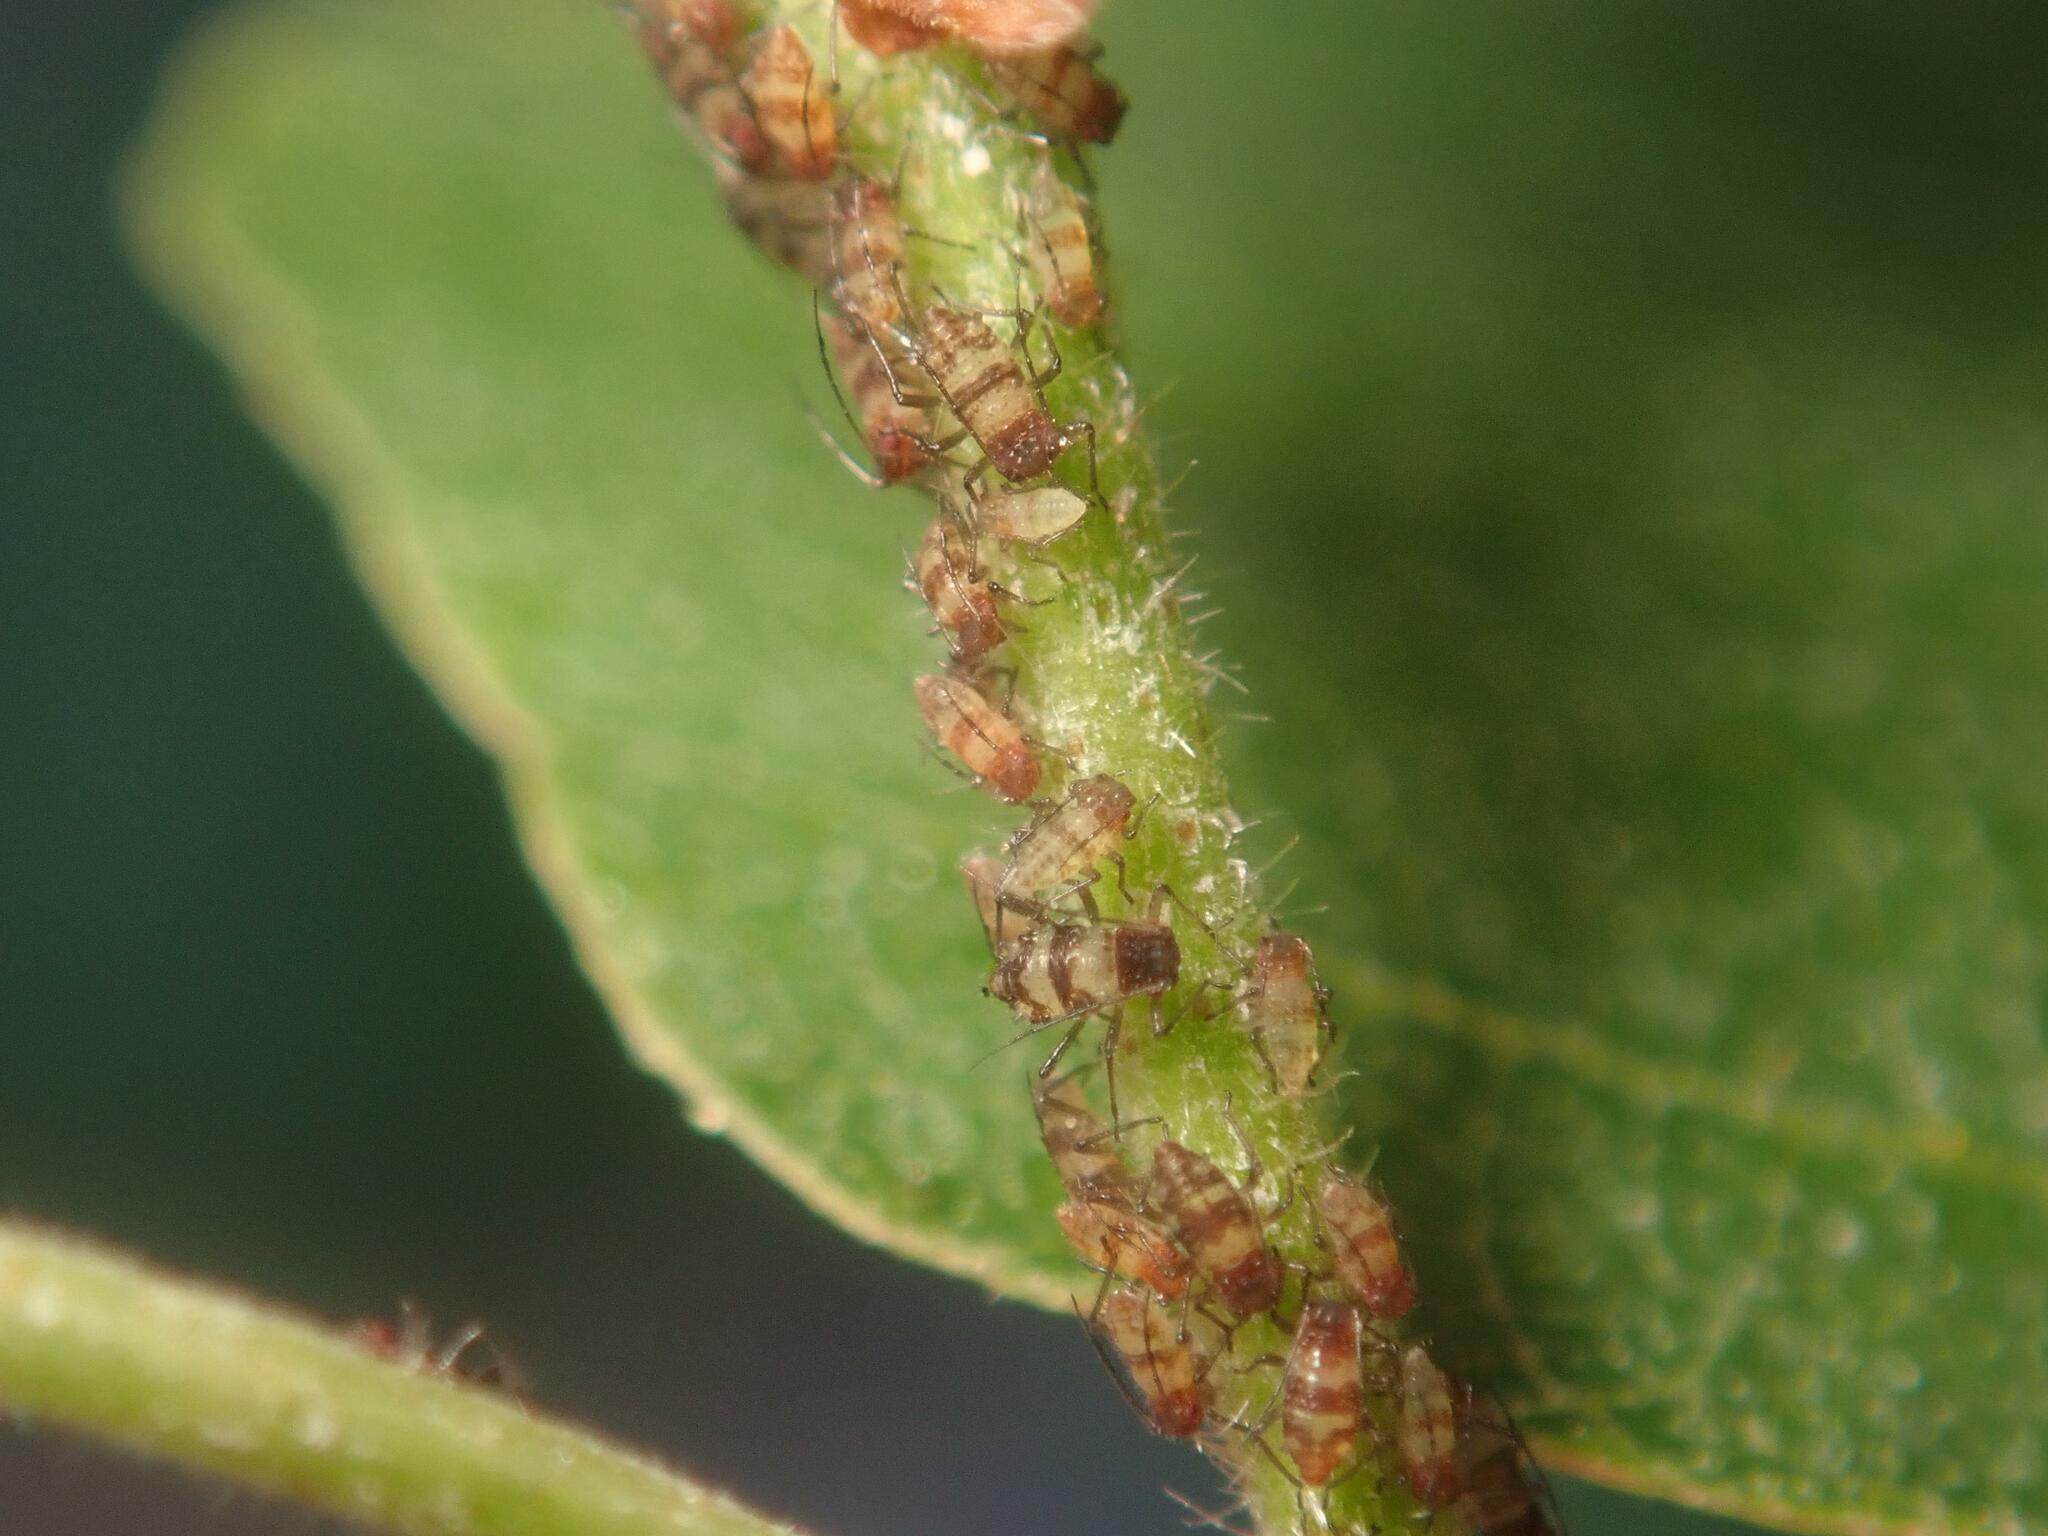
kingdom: Animalia
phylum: Arthropoda
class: Insecta
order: Hemiptera
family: Aphididae
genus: Callipterinella
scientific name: Callipterinella tuberculata
